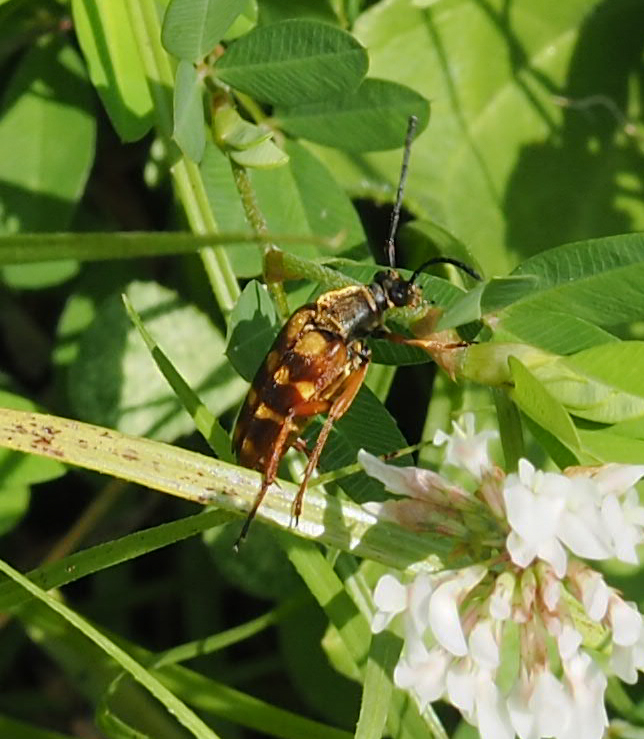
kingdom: Animalia
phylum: Arthropoda
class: Insecta
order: Coleoptera
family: Cerambycidae
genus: Typocerus
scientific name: Typocerus velutinus
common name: Banded longhorn beetle
